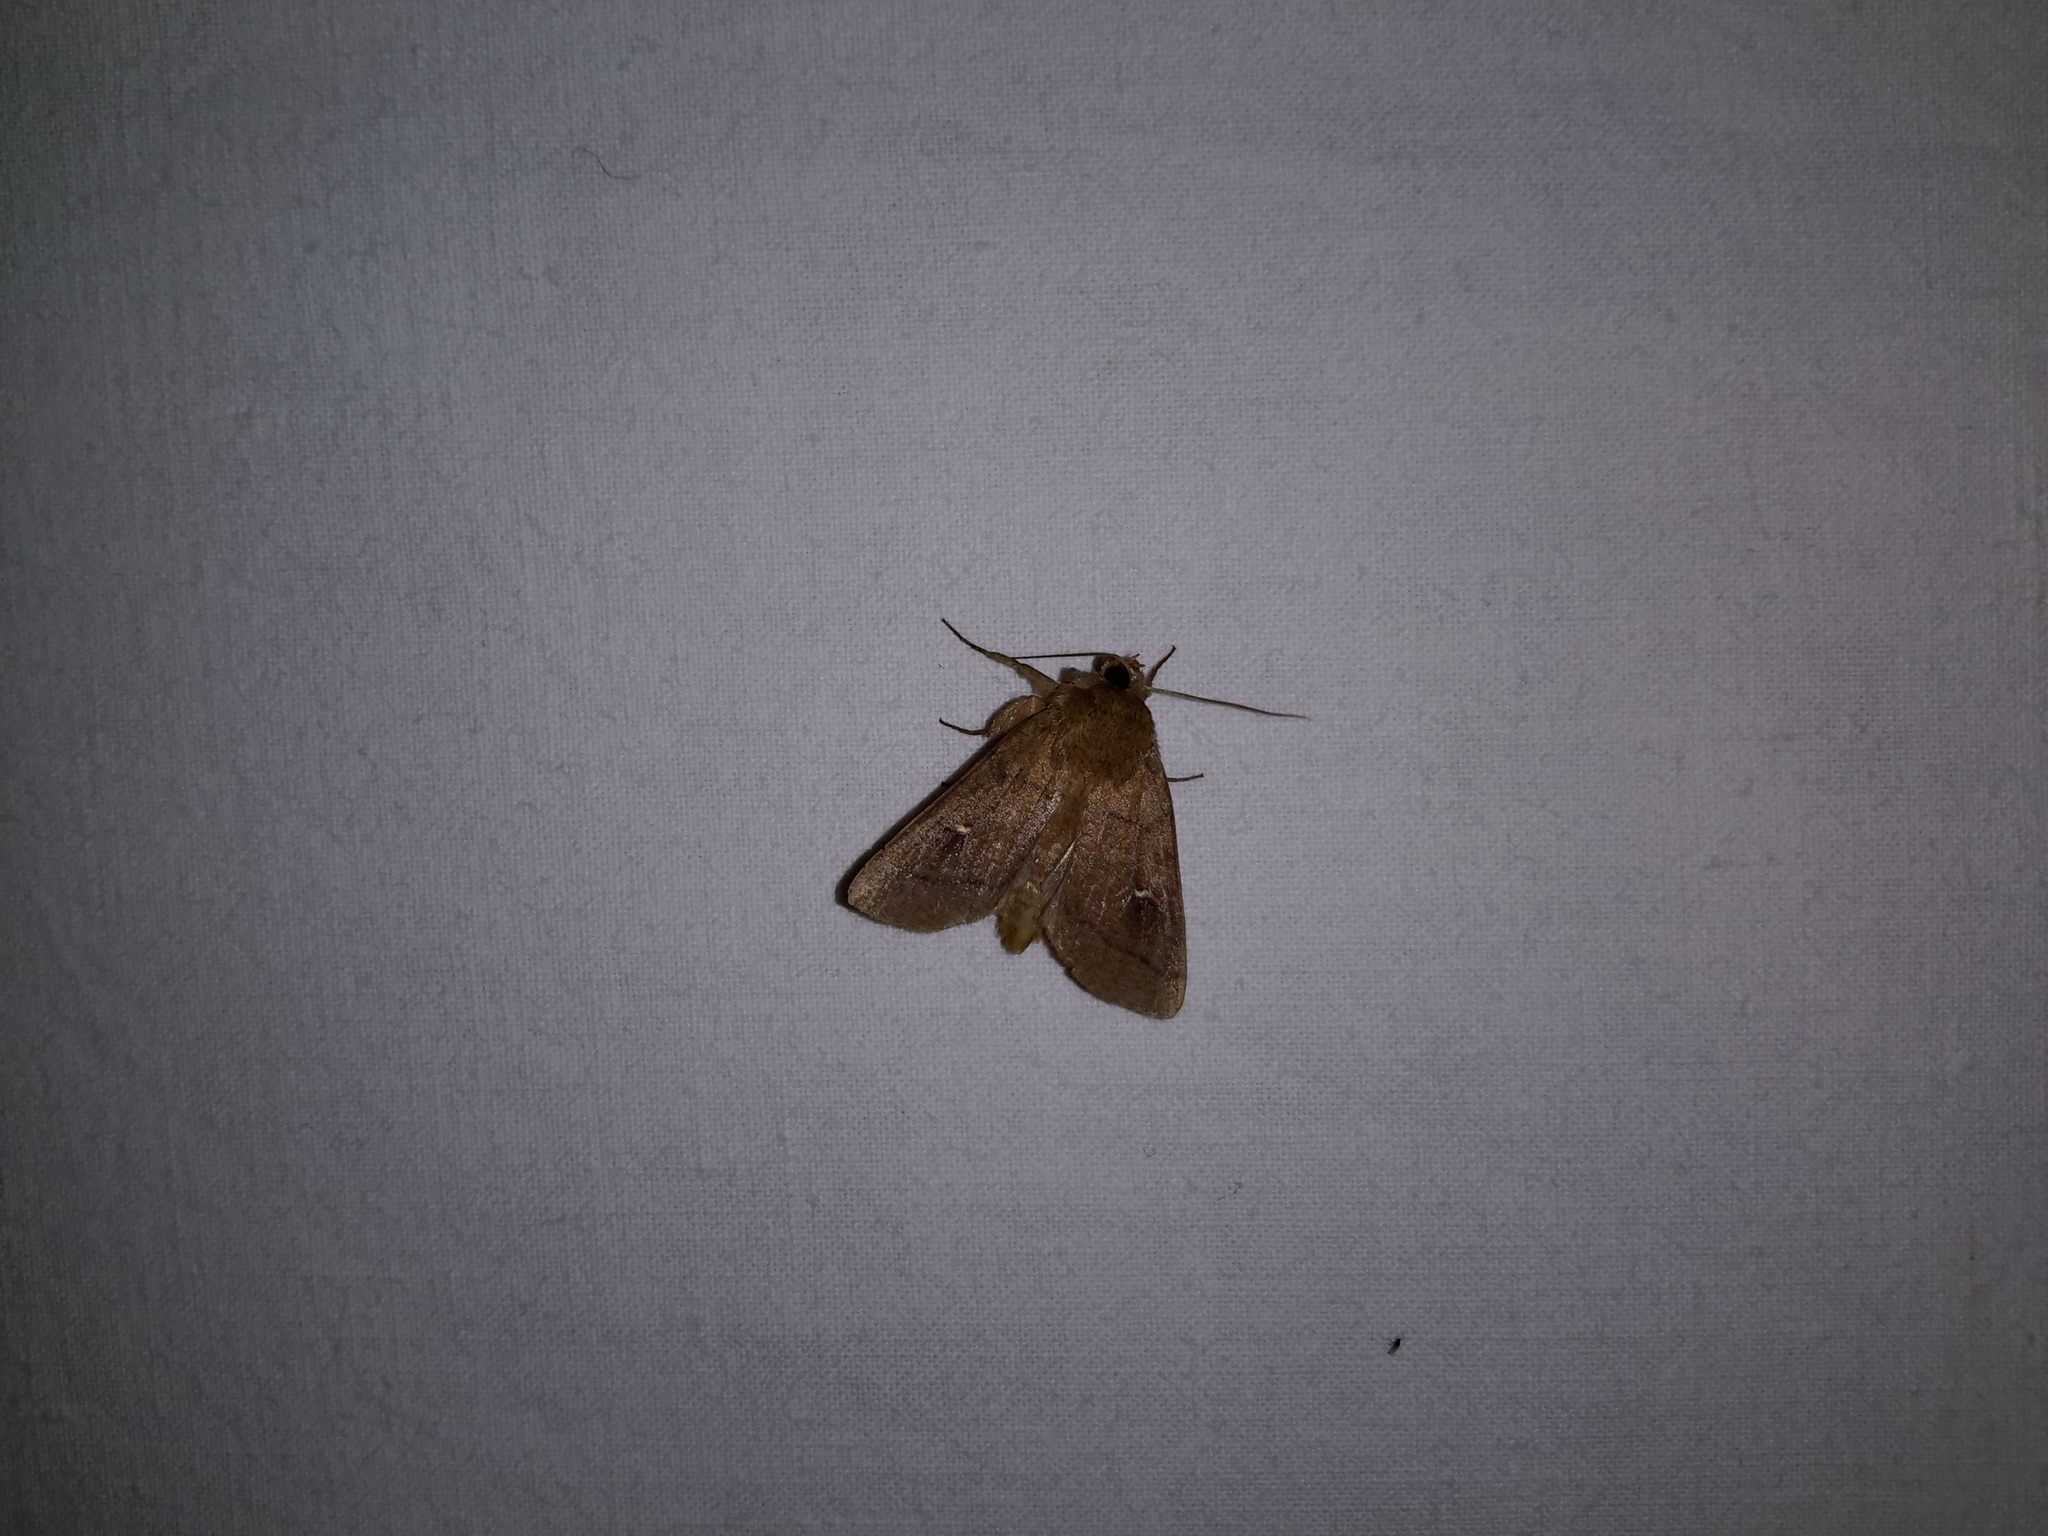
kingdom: Animalia
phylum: Arthropoda
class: Insecta
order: Lepidoptera
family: Noctuidae
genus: Mythimna
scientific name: Mythimna turca
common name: Double line
